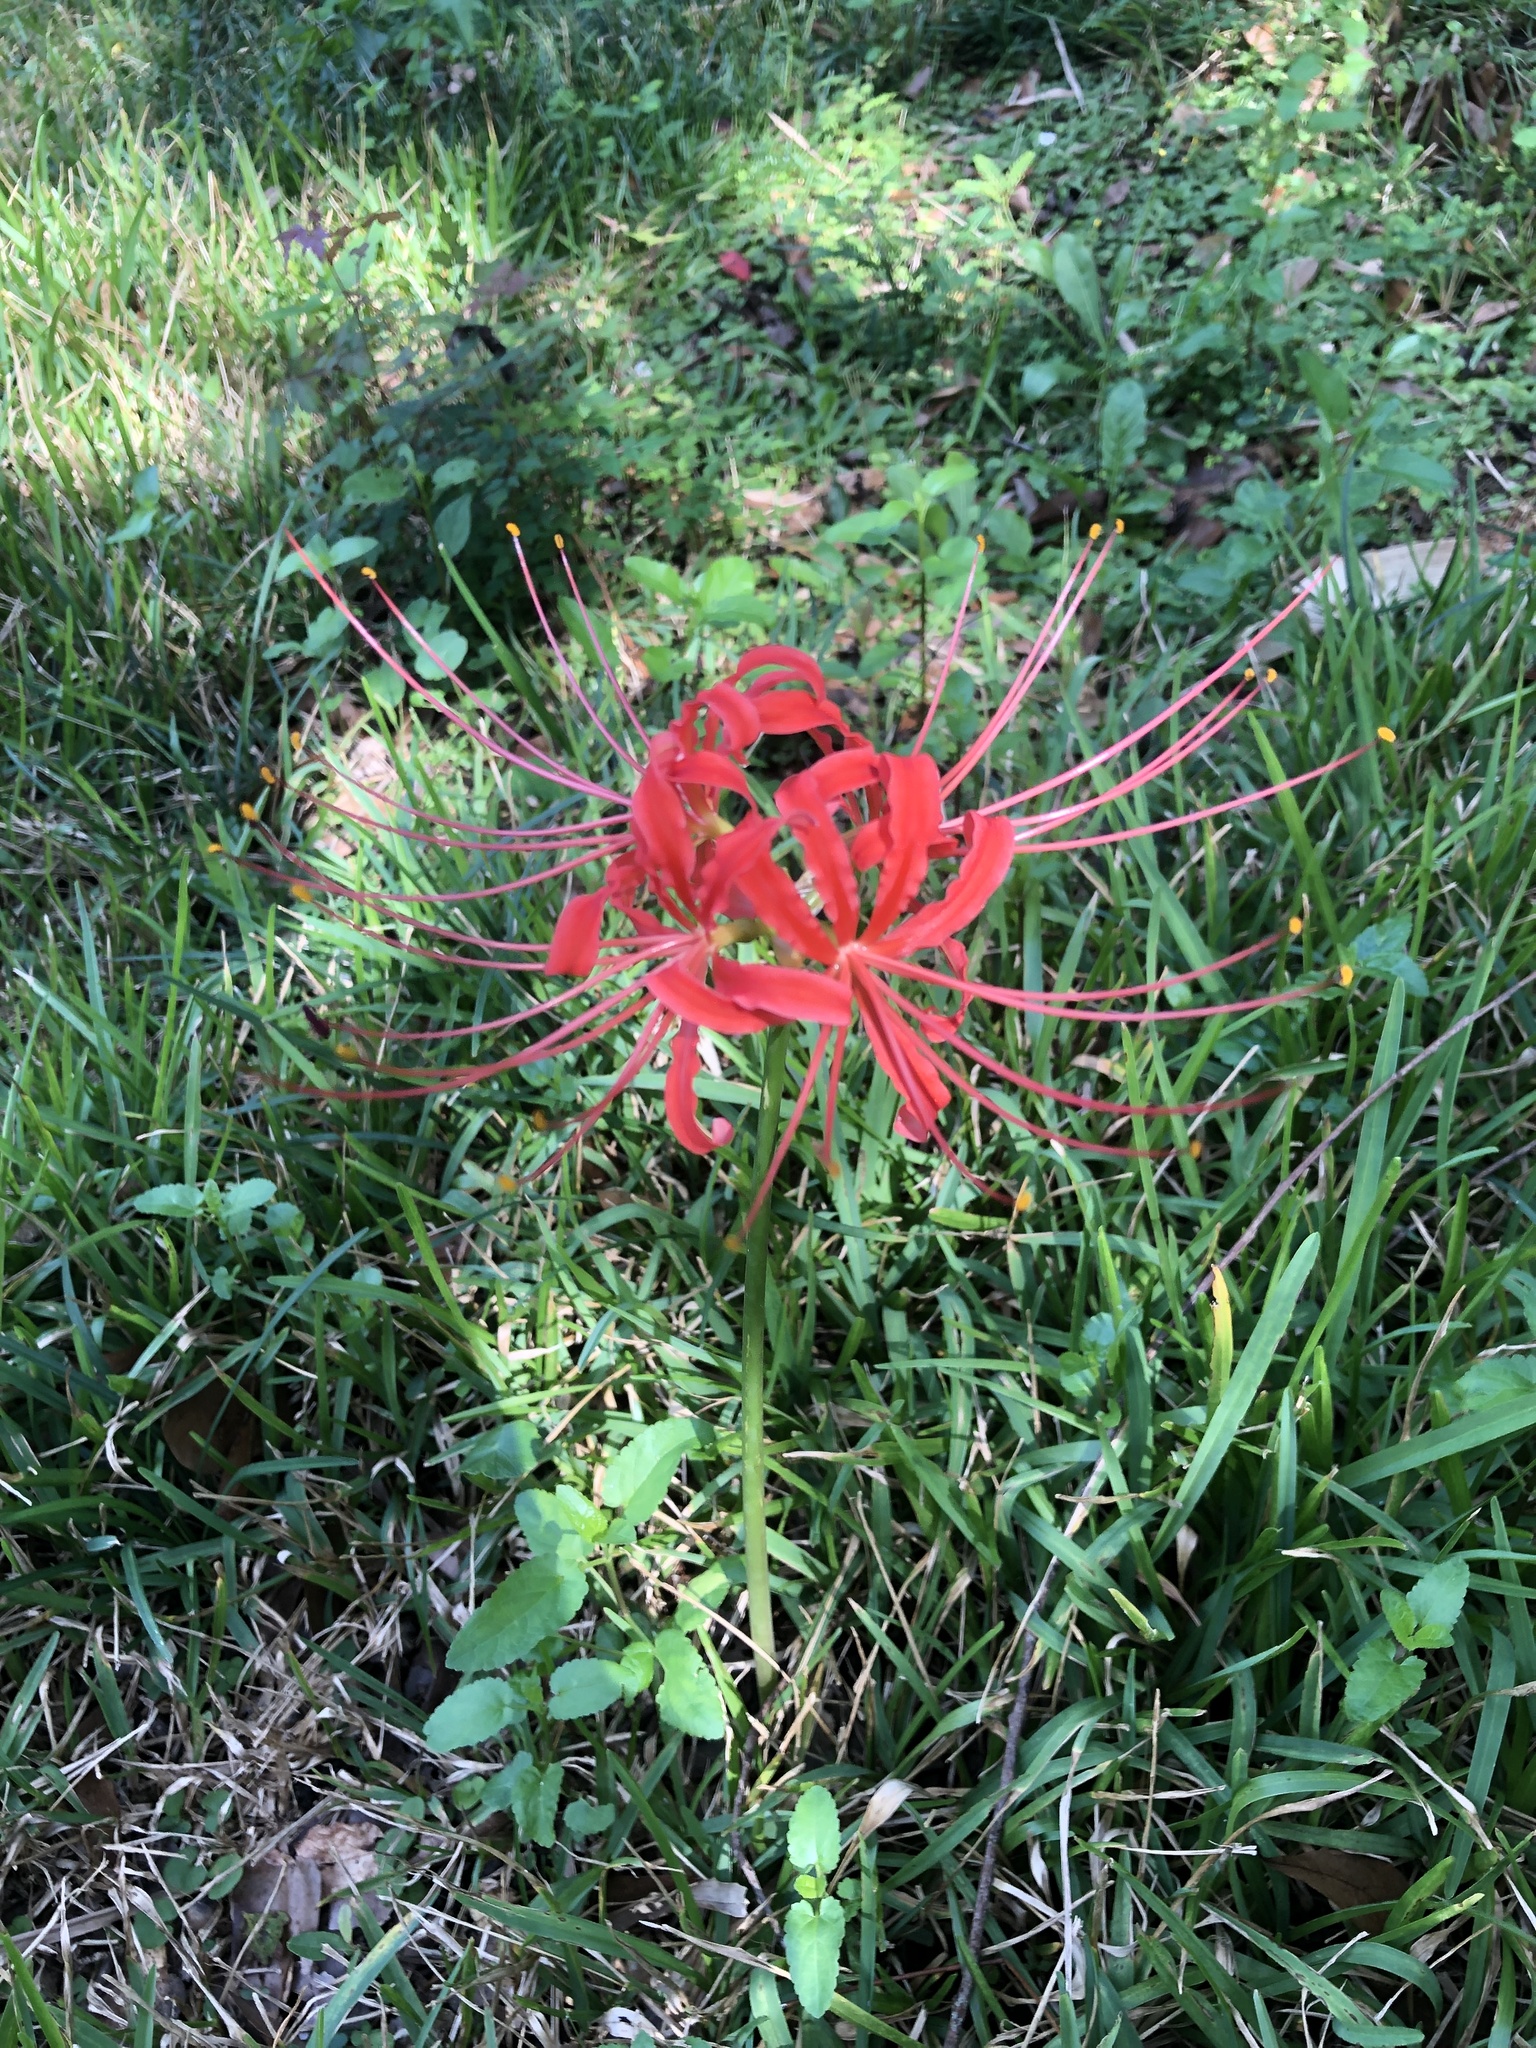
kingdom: Plantae
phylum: Tracheophyta
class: Liliopsida
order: Asparagales
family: Amaryllidaceae
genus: Lycoris
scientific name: Lycoris radiata
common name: Red spider lily
